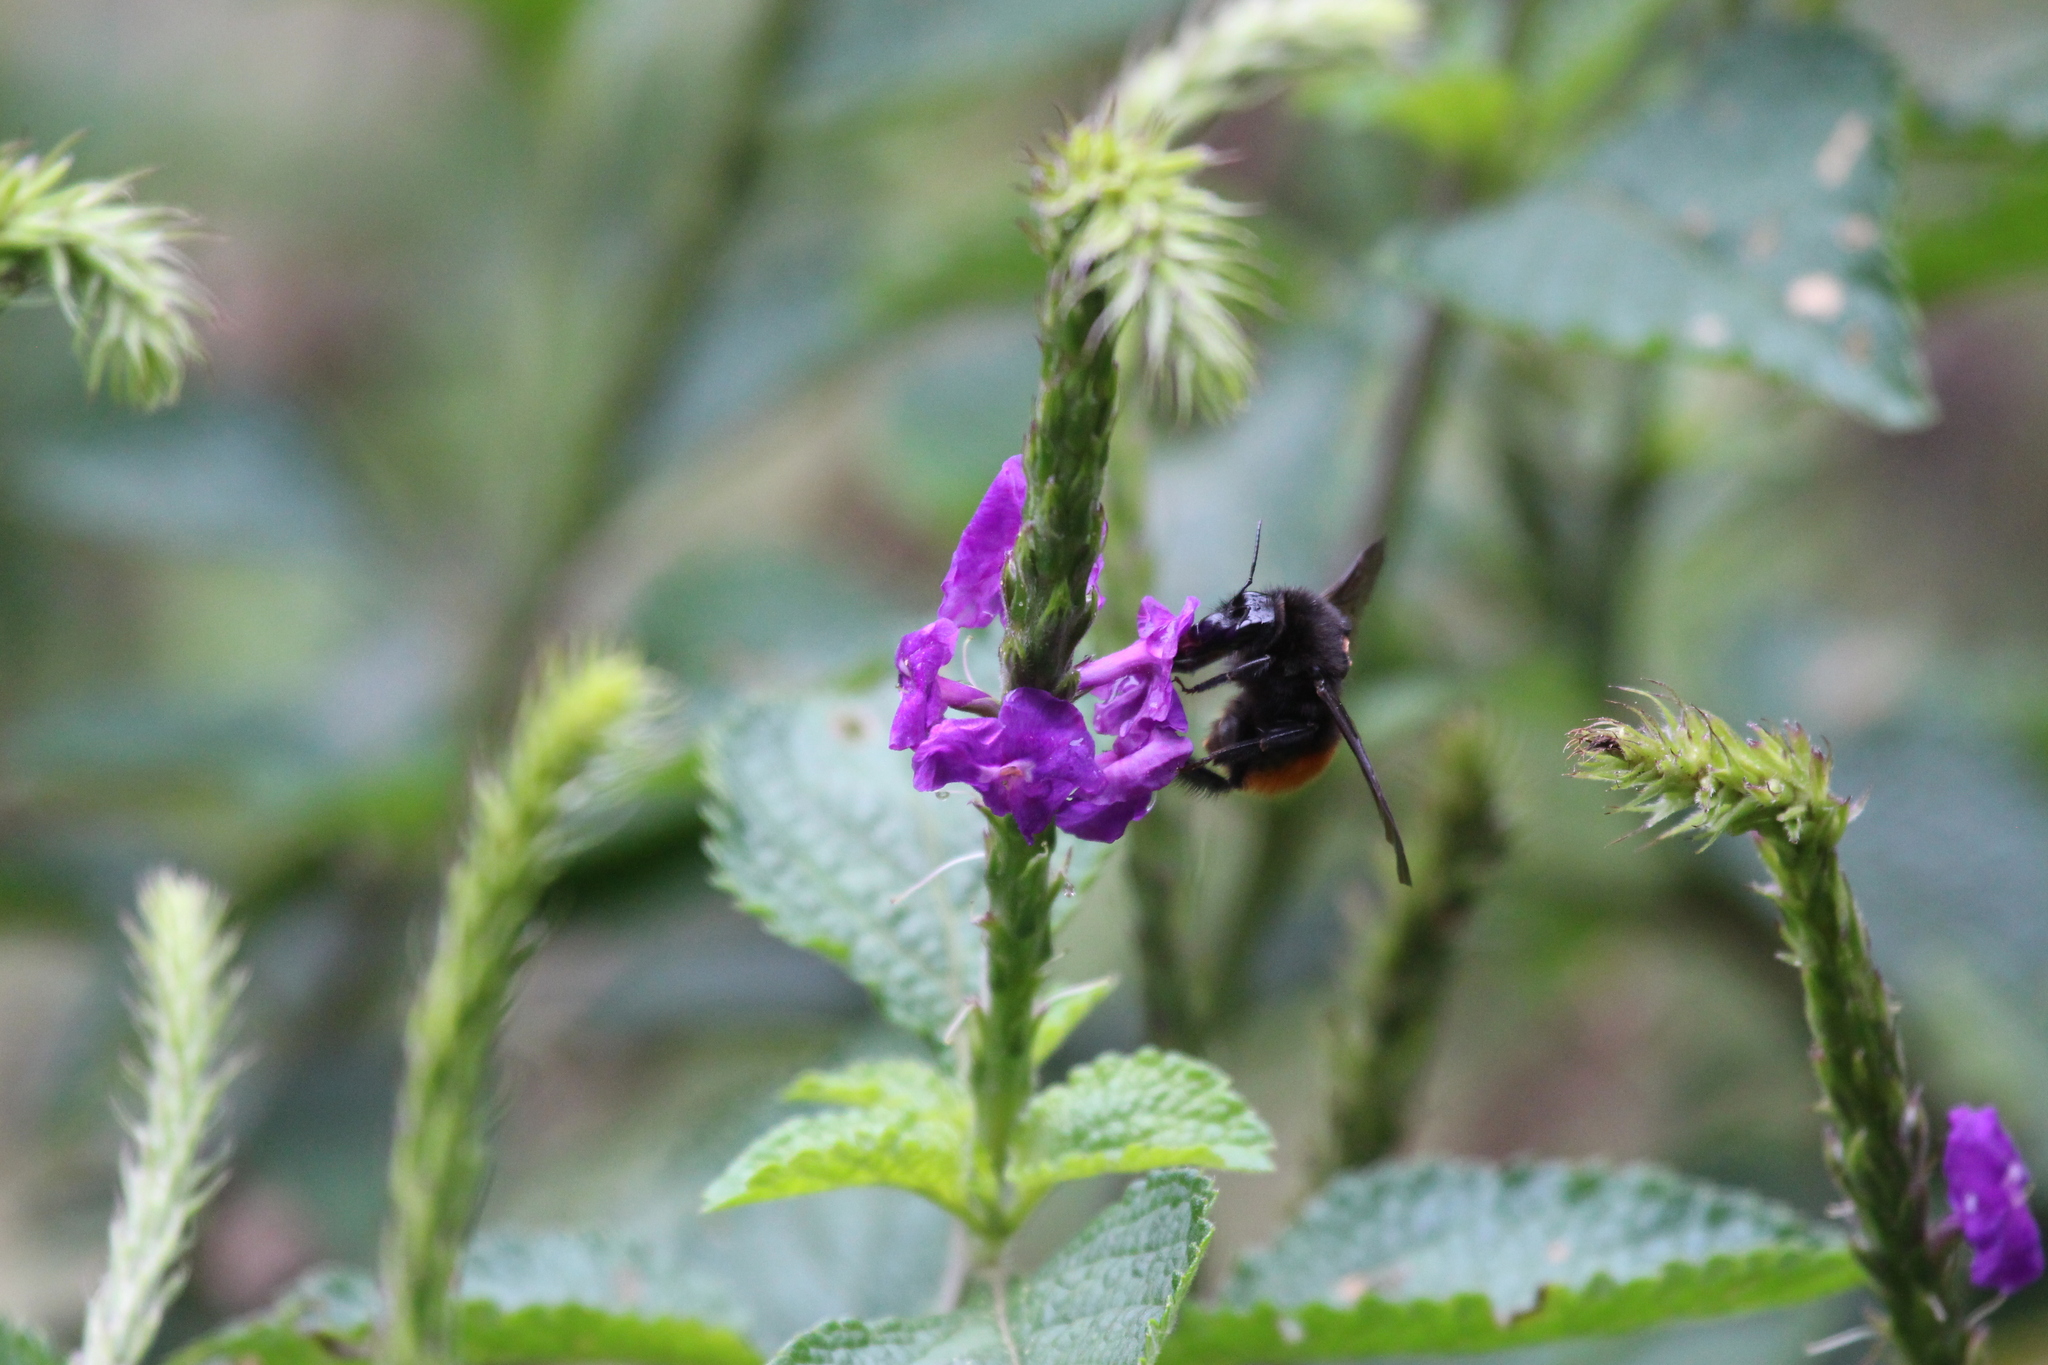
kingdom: Animalia
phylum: Arthropoda
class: Insecta
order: Hymenoptera
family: Apidae
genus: Bombus
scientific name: Bombus excellens
